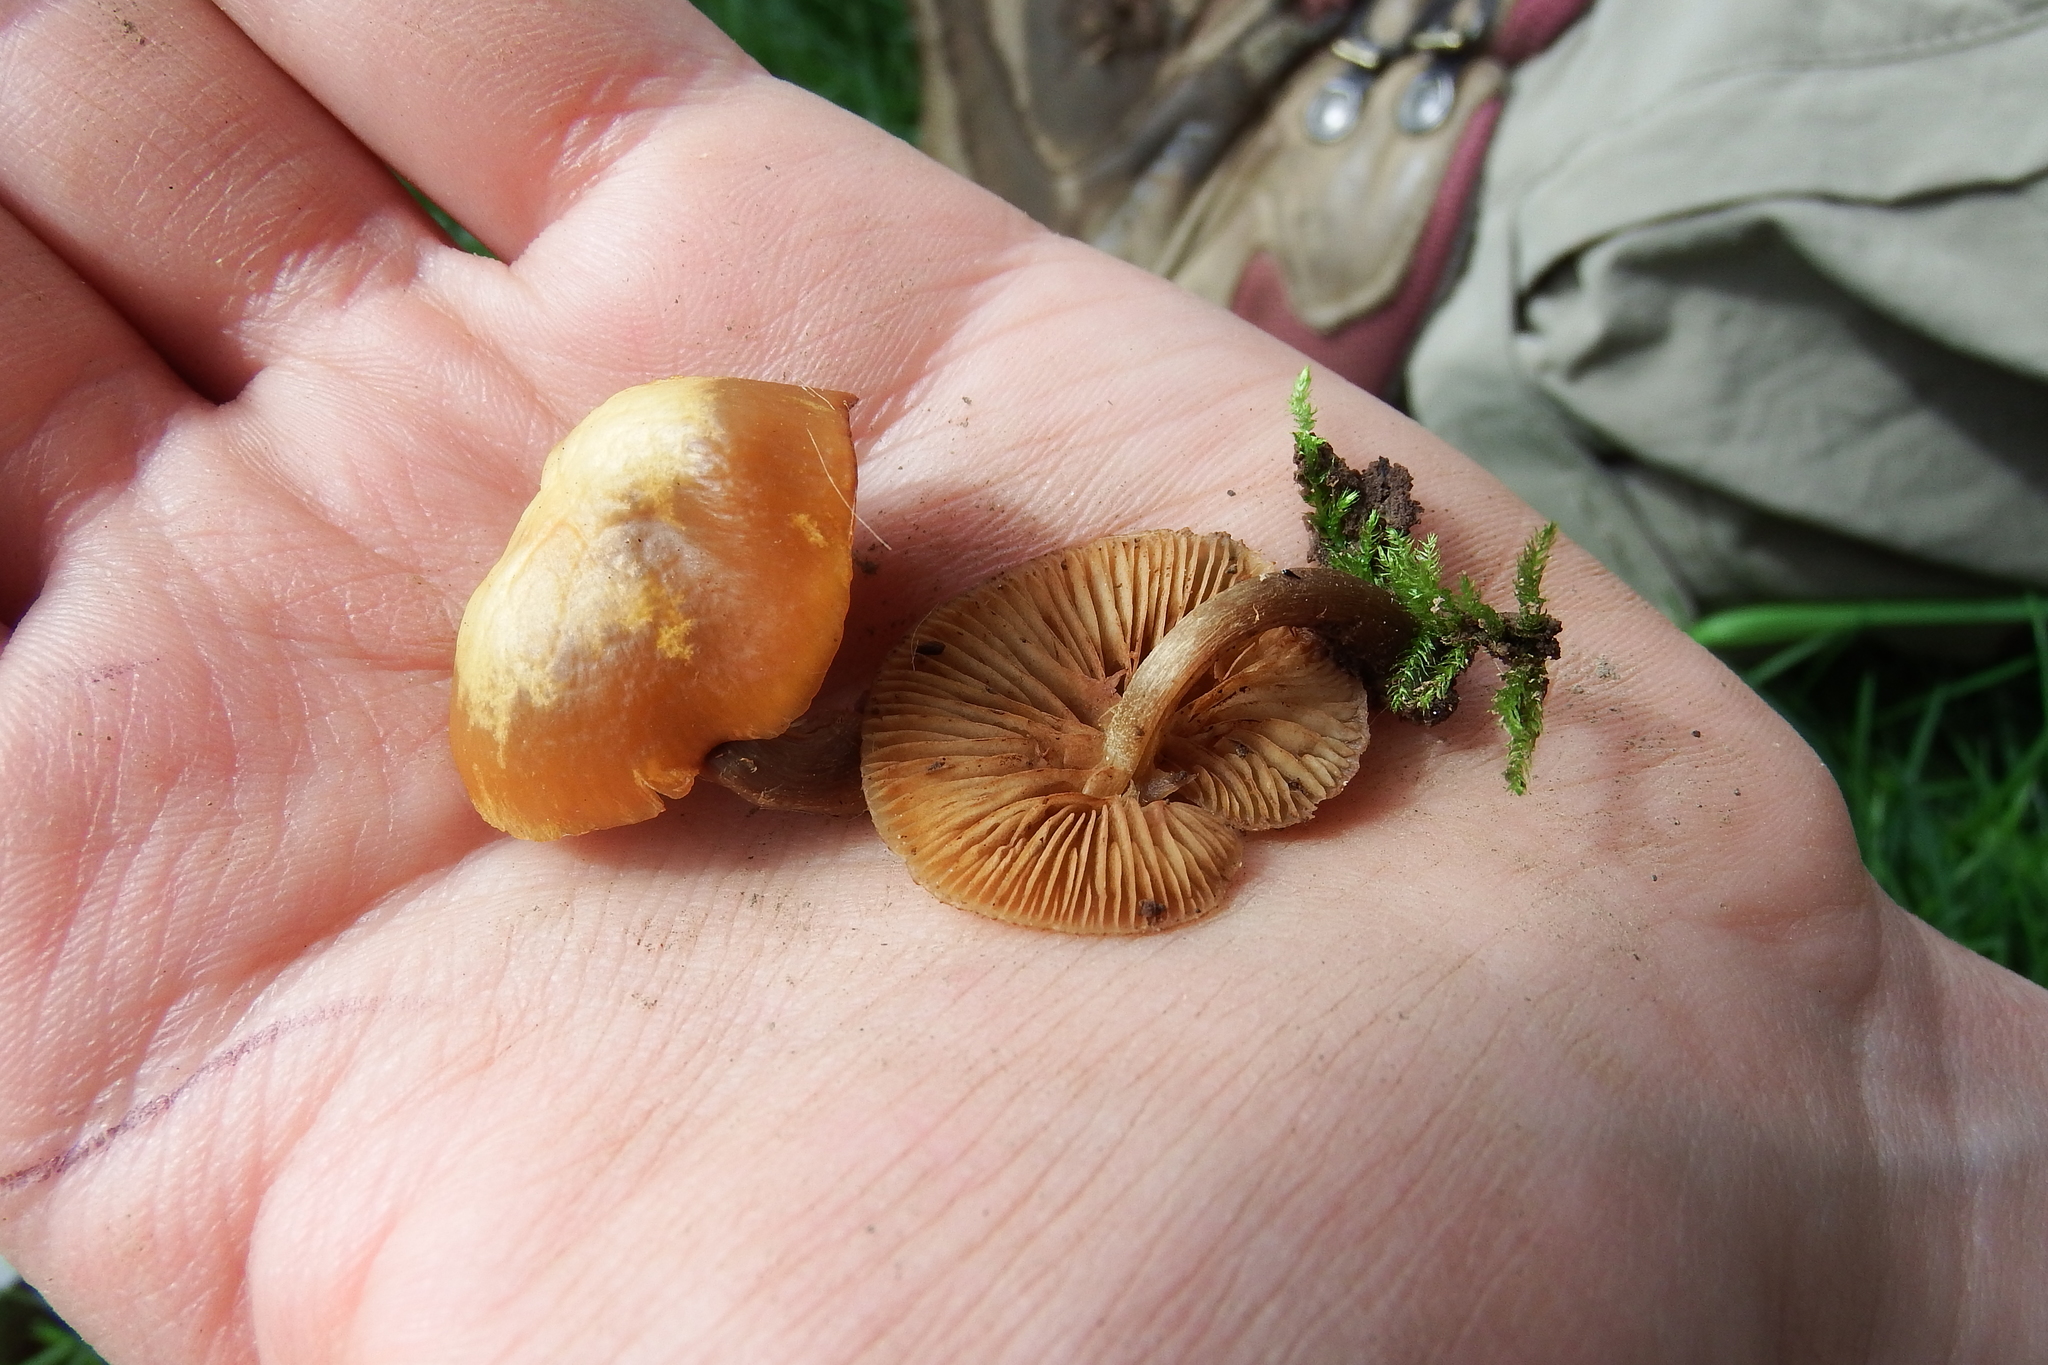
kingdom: Fungi
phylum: Basidiomycota
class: Agaricomycetes
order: Agaricales
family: Hymenogastraceae
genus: Galerina
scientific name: Galerina marginata
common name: Funeral bell
